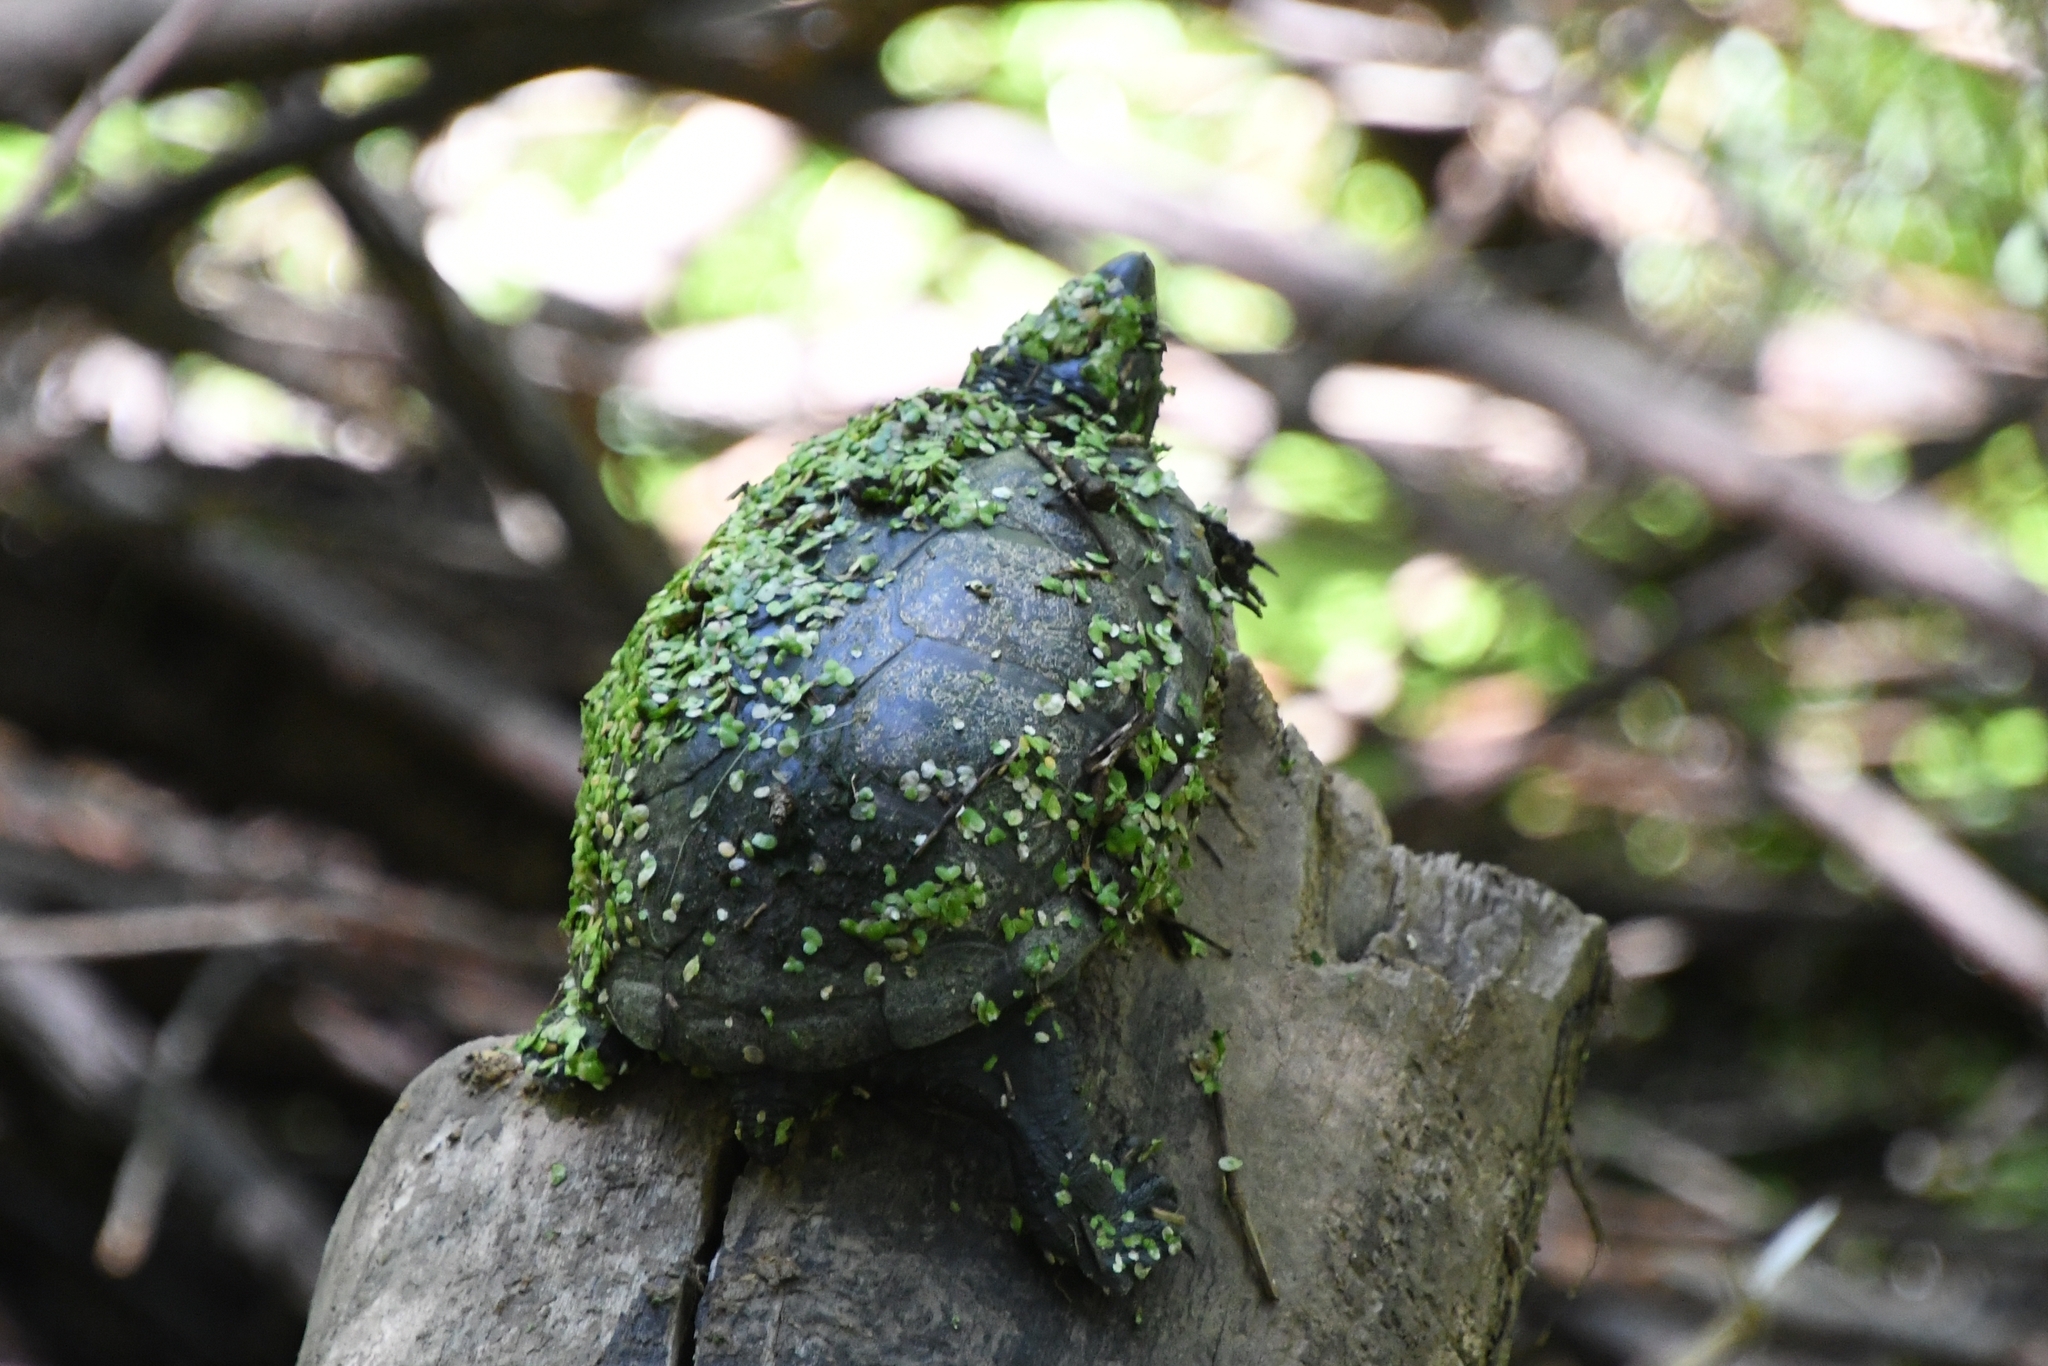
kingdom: Animalia
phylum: Chordata
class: Testudines
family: Kinosternidae
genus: Kinosternon
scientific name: Kinosternon sonoriense
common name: Sonora mud turtle
